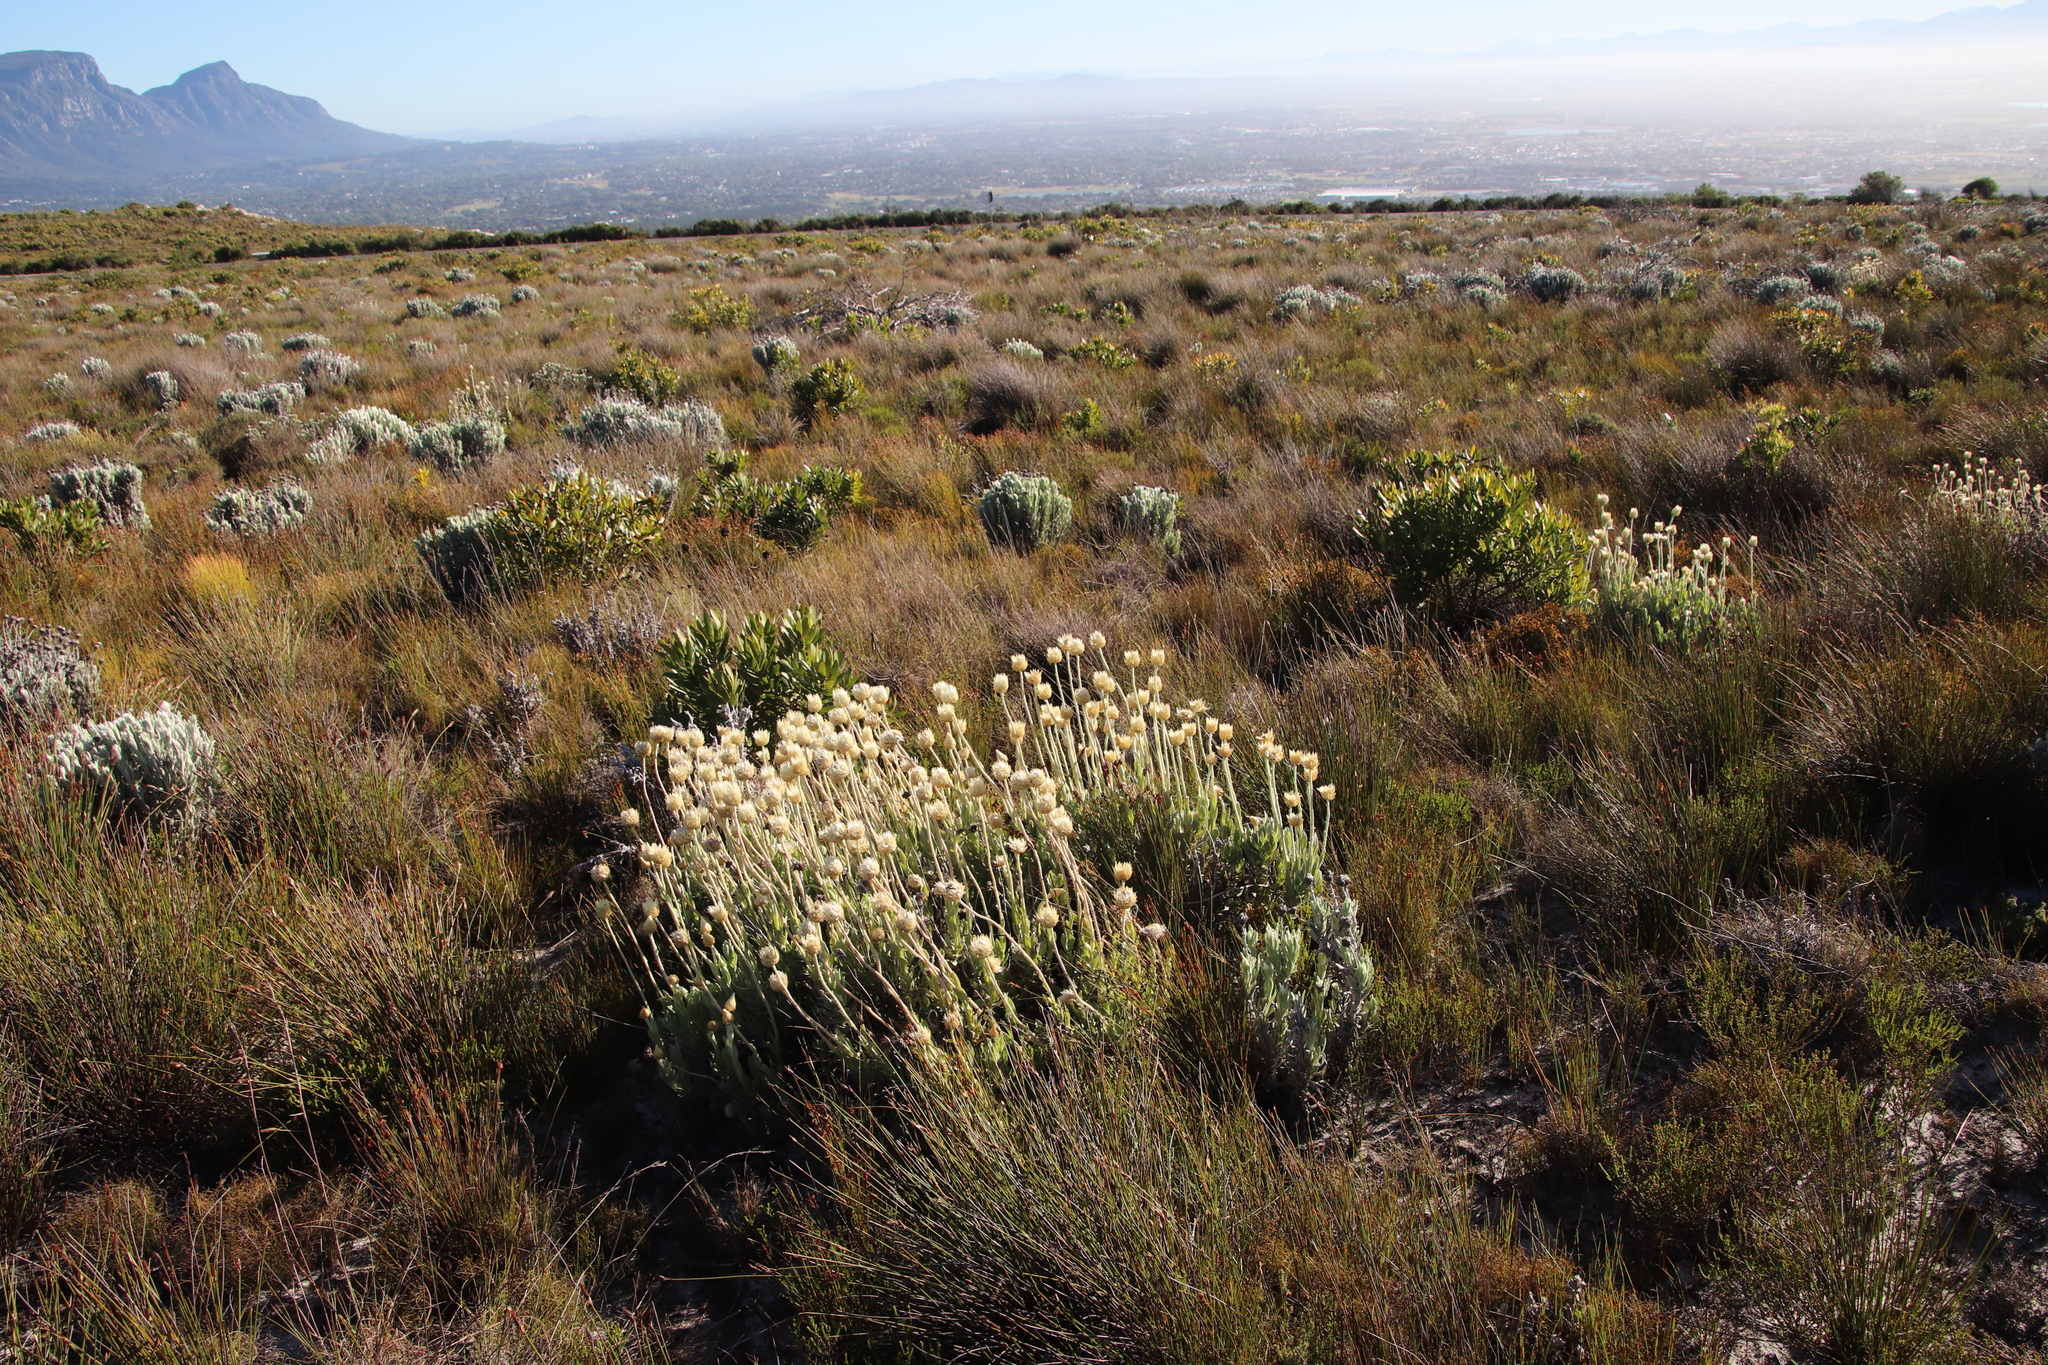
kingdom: Plantae
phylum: Tracheophyta
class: Magnoliopsida
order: Asterales
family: Asteraceae
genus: Syncarpha
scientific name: Syncarpha speciosissima
